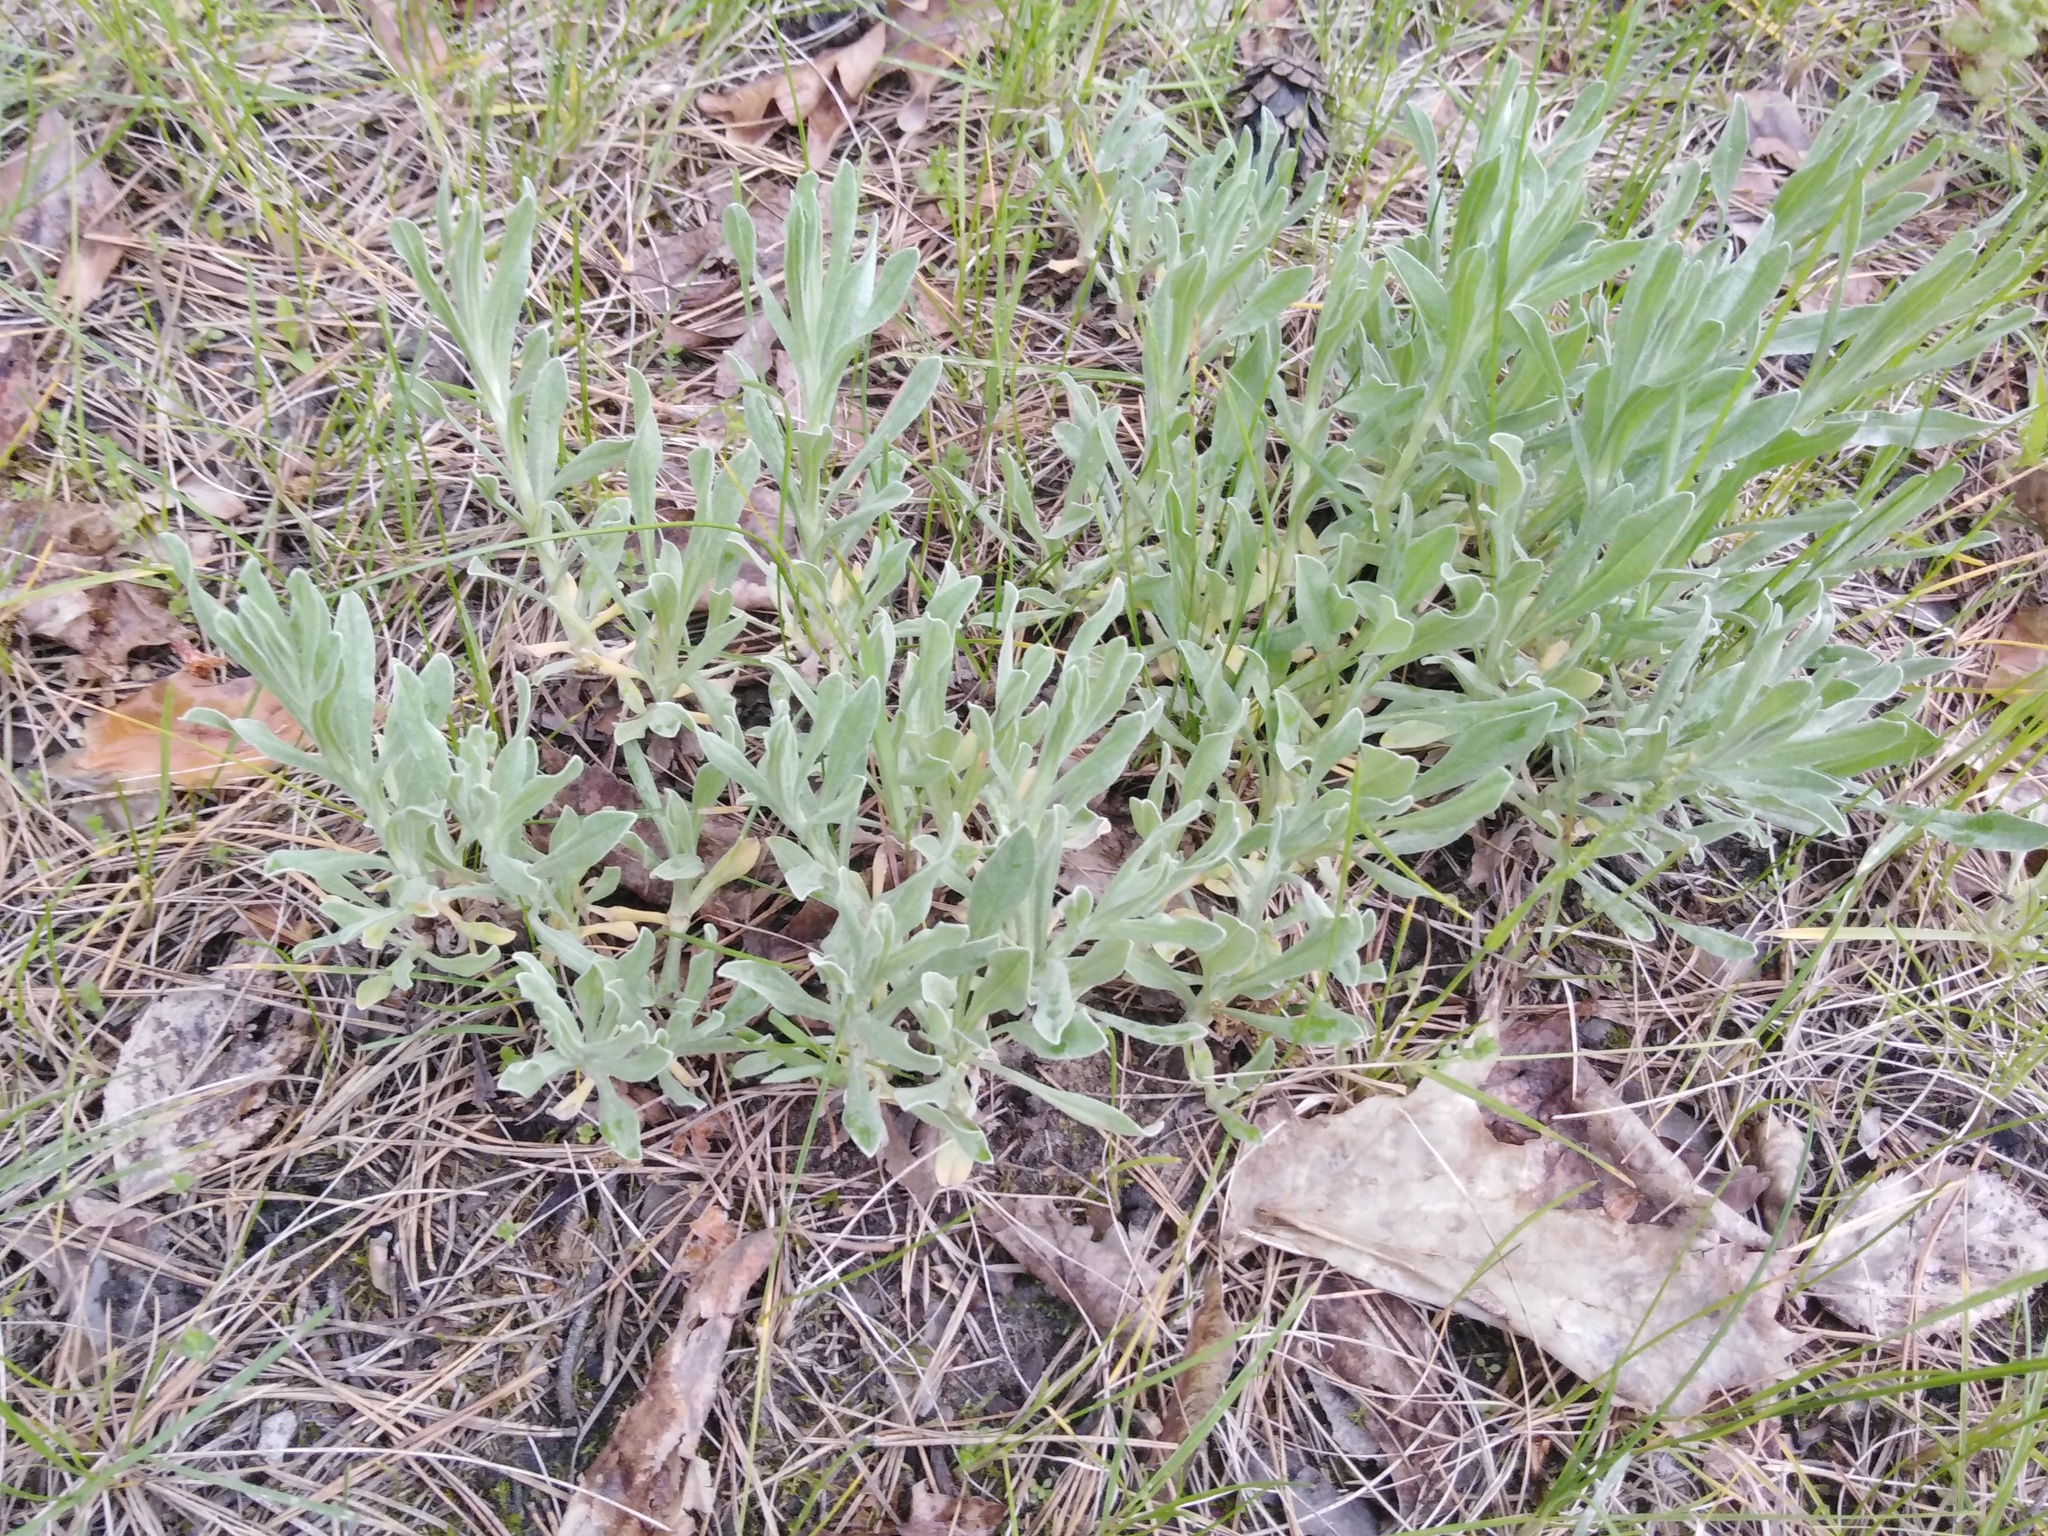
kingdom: Plantae
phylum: Tracheophyta
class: Magnoliopsida
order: Asterales
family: Asteraceae
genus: Helichrysum
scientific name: Helichrysum arenarium
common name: Strawflower
